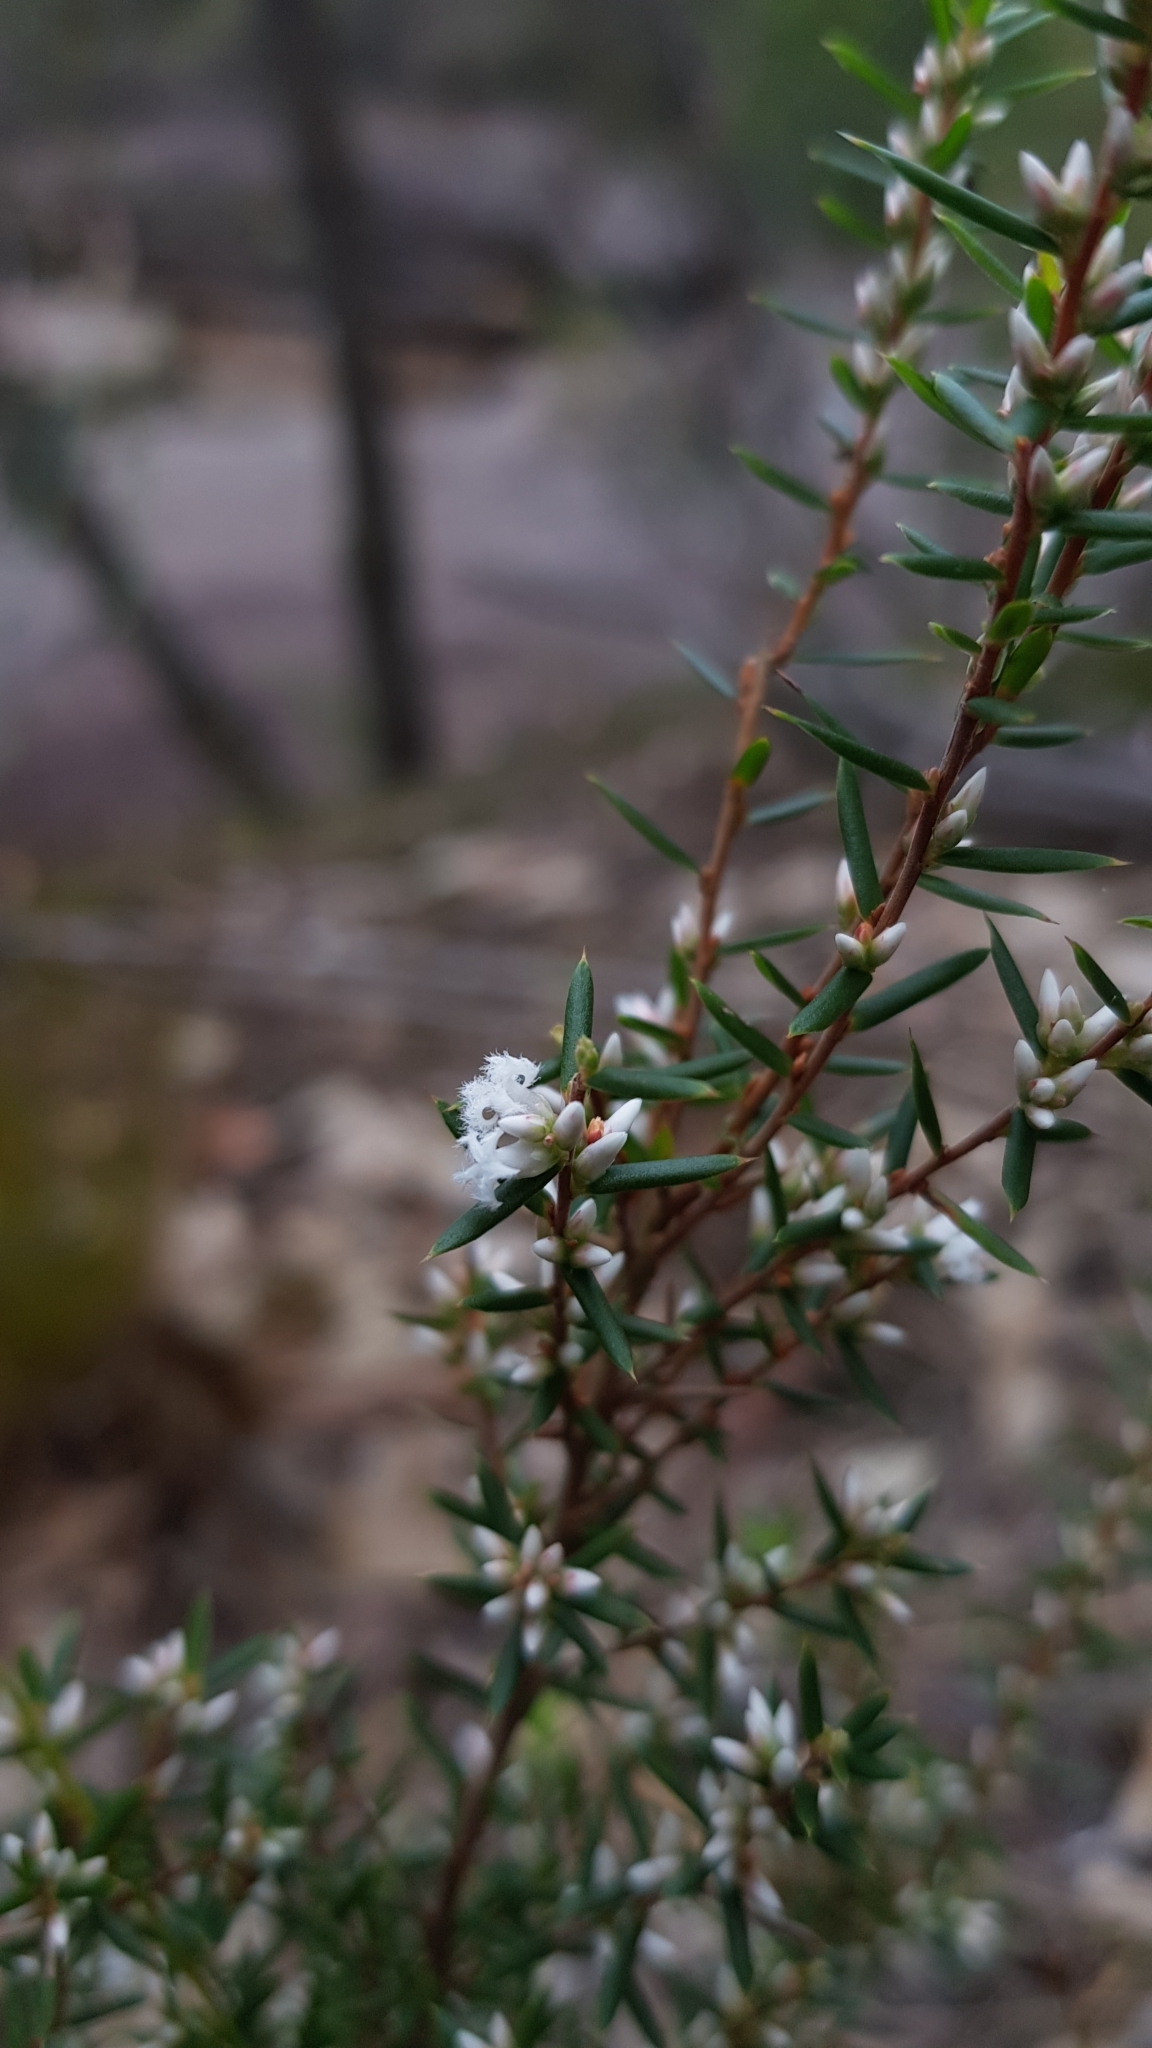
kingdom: Plantae
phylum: Tracheophyta
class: Magnoliopsida
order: Ericales
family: Ericaceae
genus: Styphelia
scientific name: Styphelia ericoides
